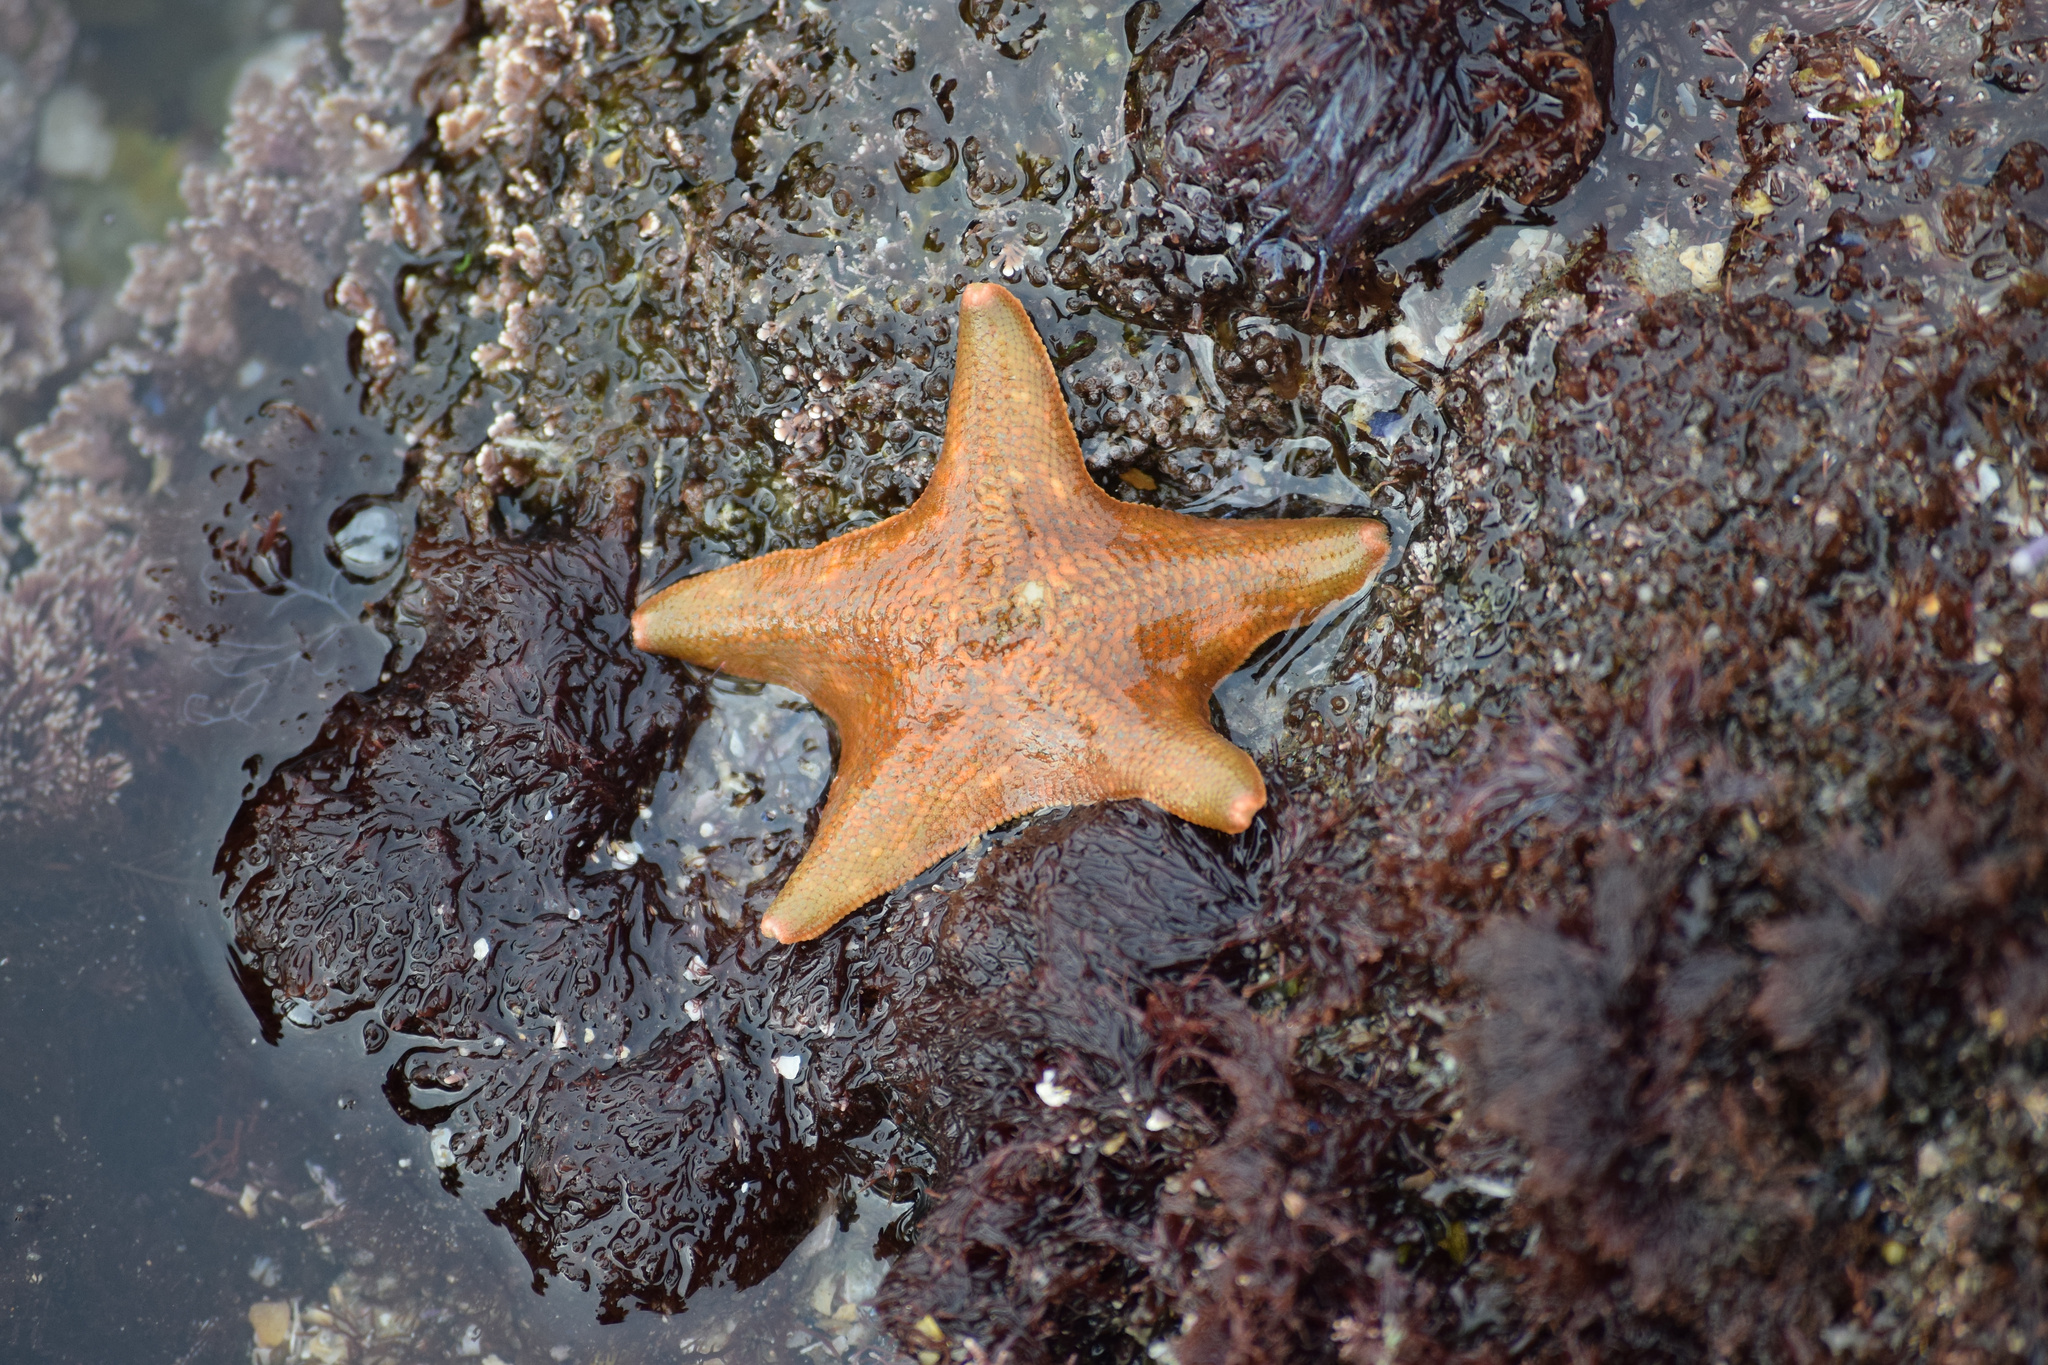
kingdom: Animalia
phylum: Echinodermata
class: Asteroidea
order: Valvatida
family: Asterinidae
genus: Patiria
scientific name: Patiria miniata
